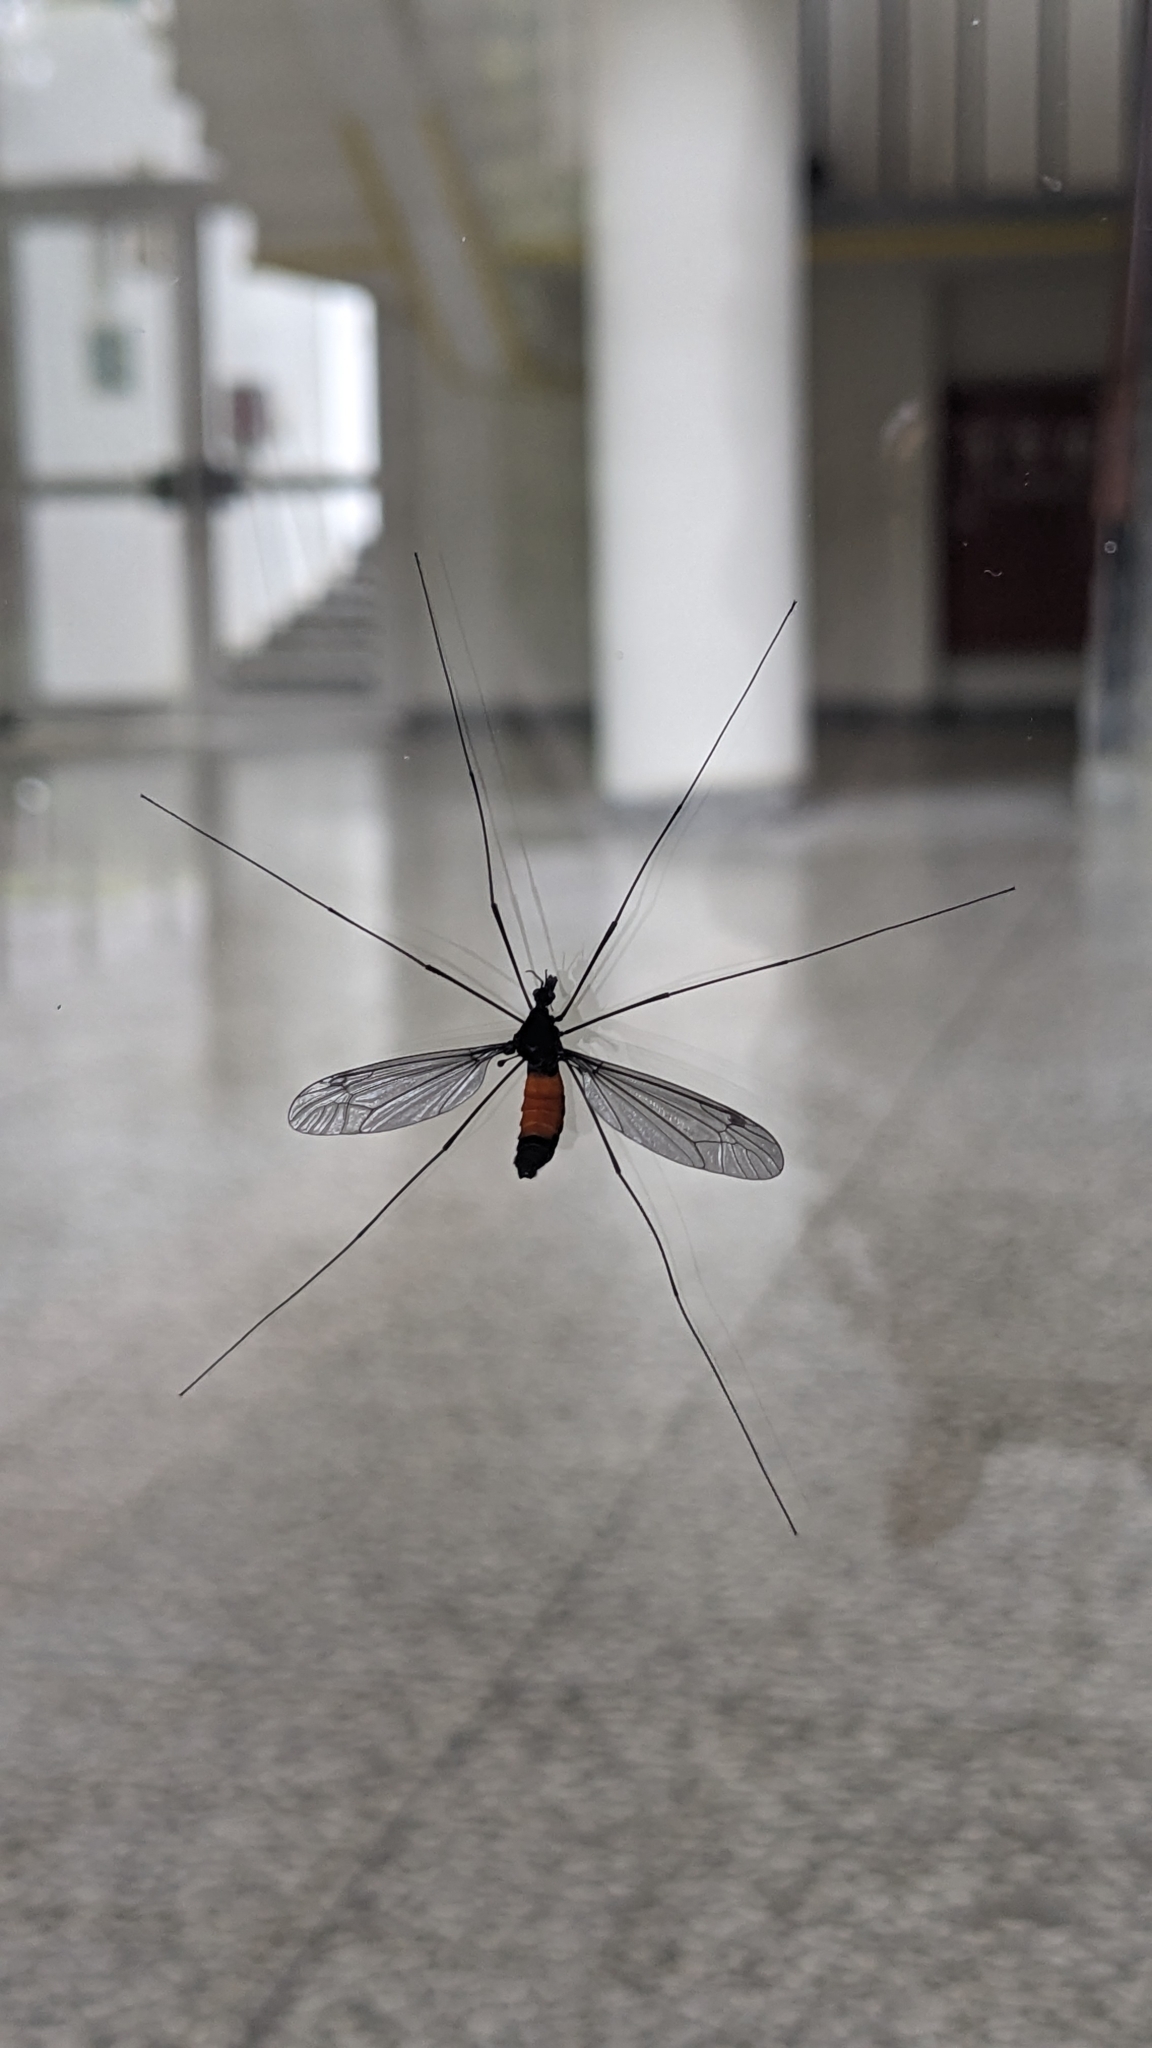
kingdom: Animalia
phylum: Arthropoda
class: Insecta
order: Diptera
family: Tipulidae
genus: Tipula
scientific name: Tipula holoserica
